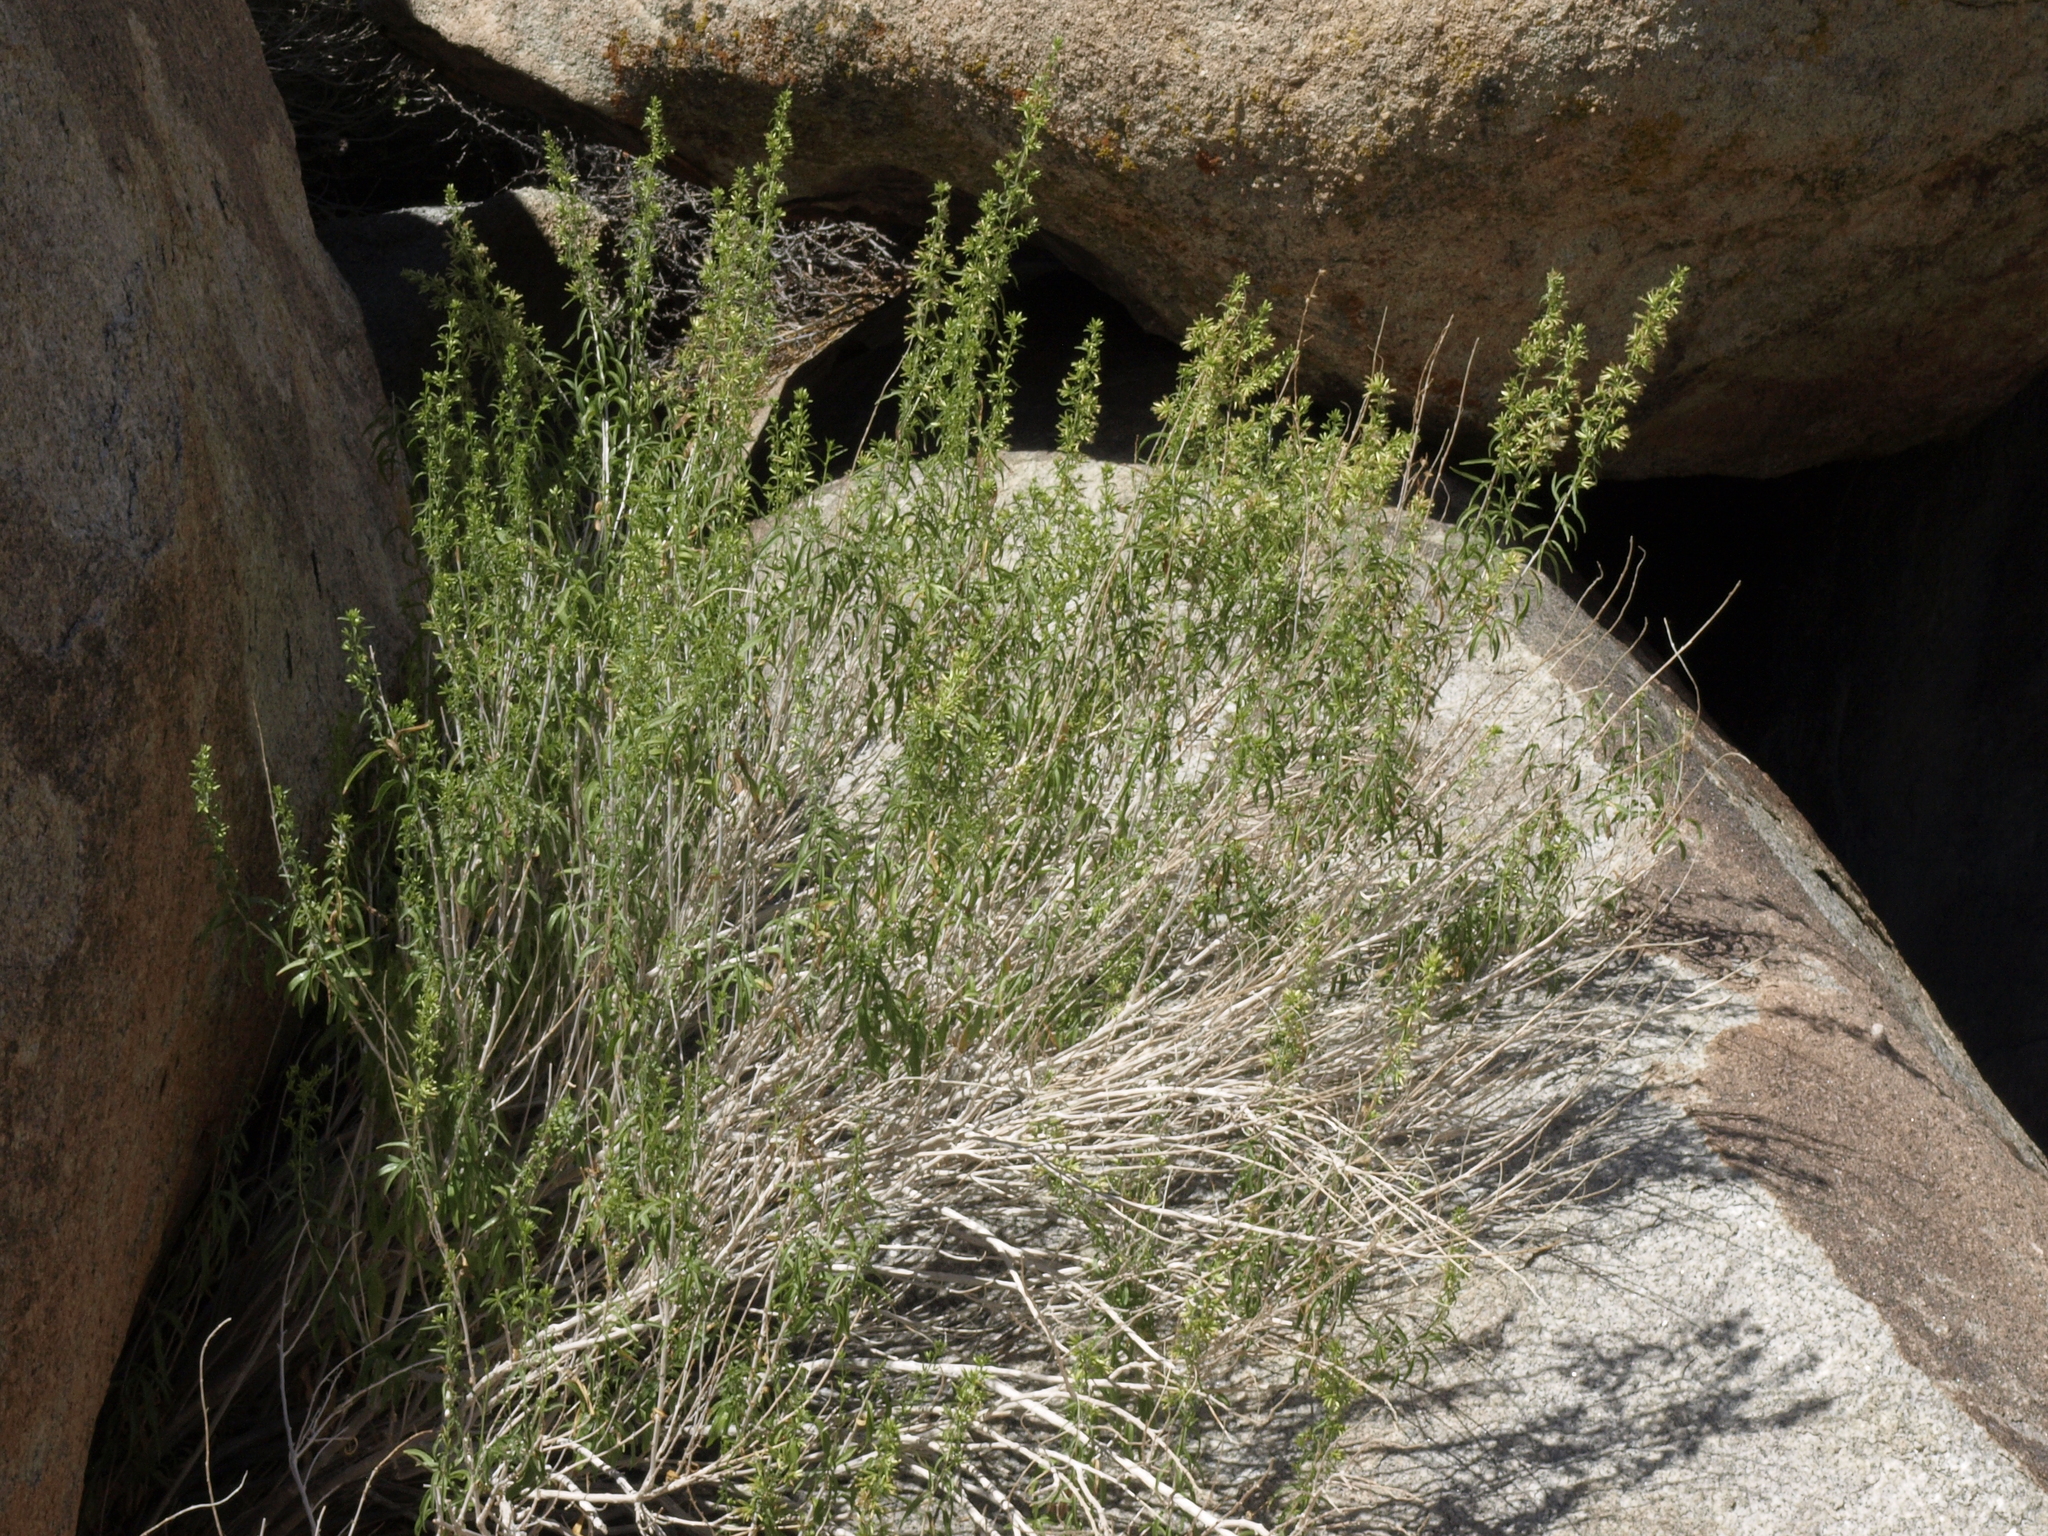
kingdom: Plantae
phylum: Tracheophyta
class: Magnoliopsida
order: Asterales
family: Asteraceae
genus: Brickellia
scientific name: Brickellia longifolia
